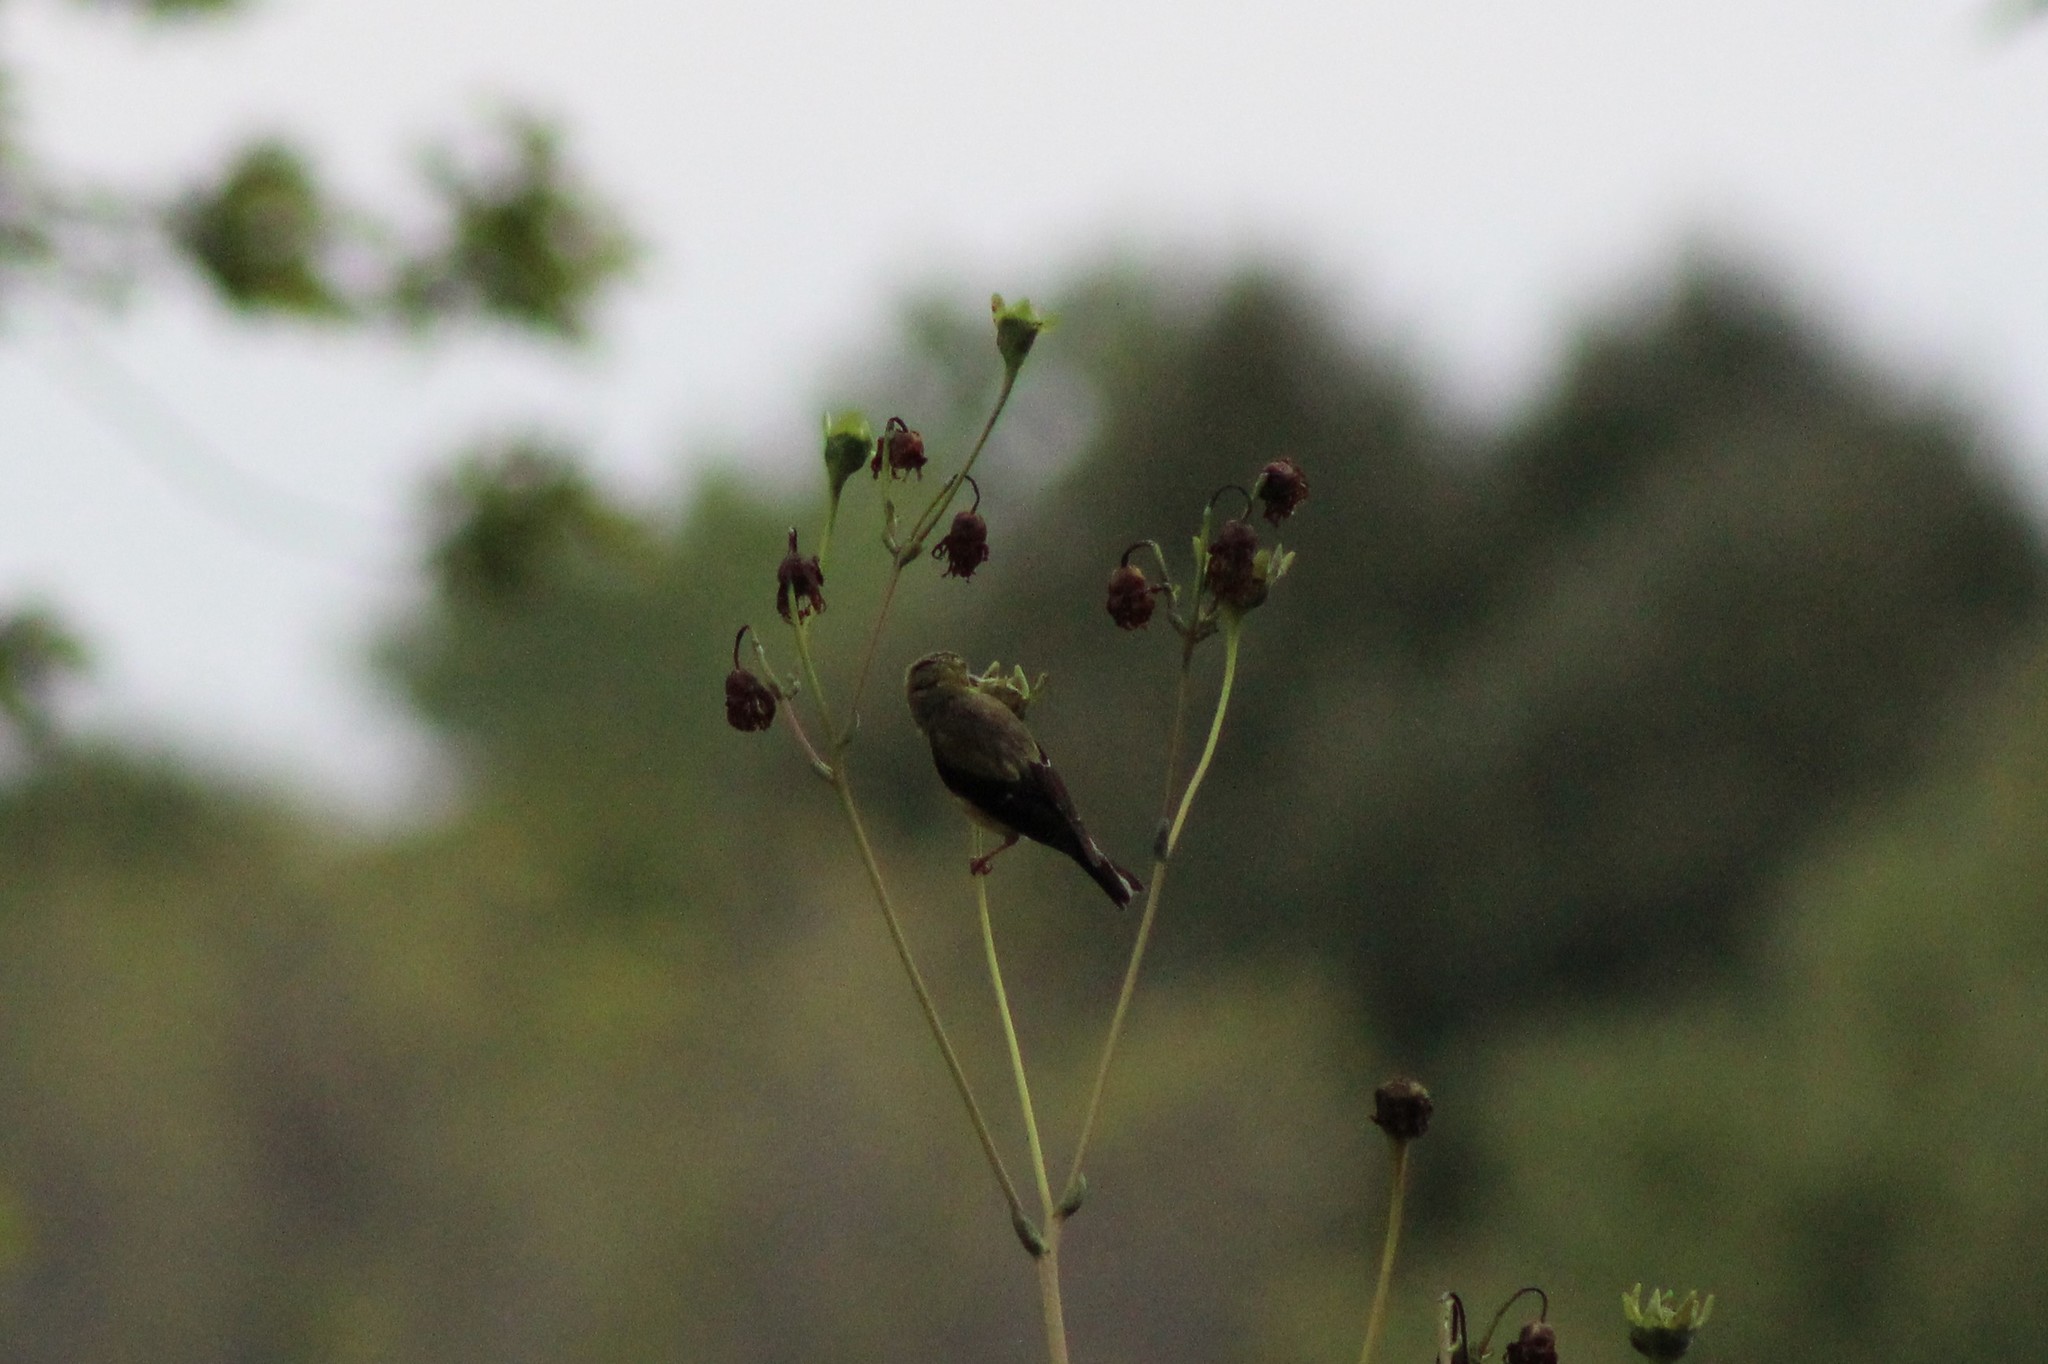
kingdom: Animalia
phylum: Chordata
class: Aves
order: Passeriformes
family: Fringillidae
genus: Spinus
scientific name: Spinus tristis
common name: American goldfinch
